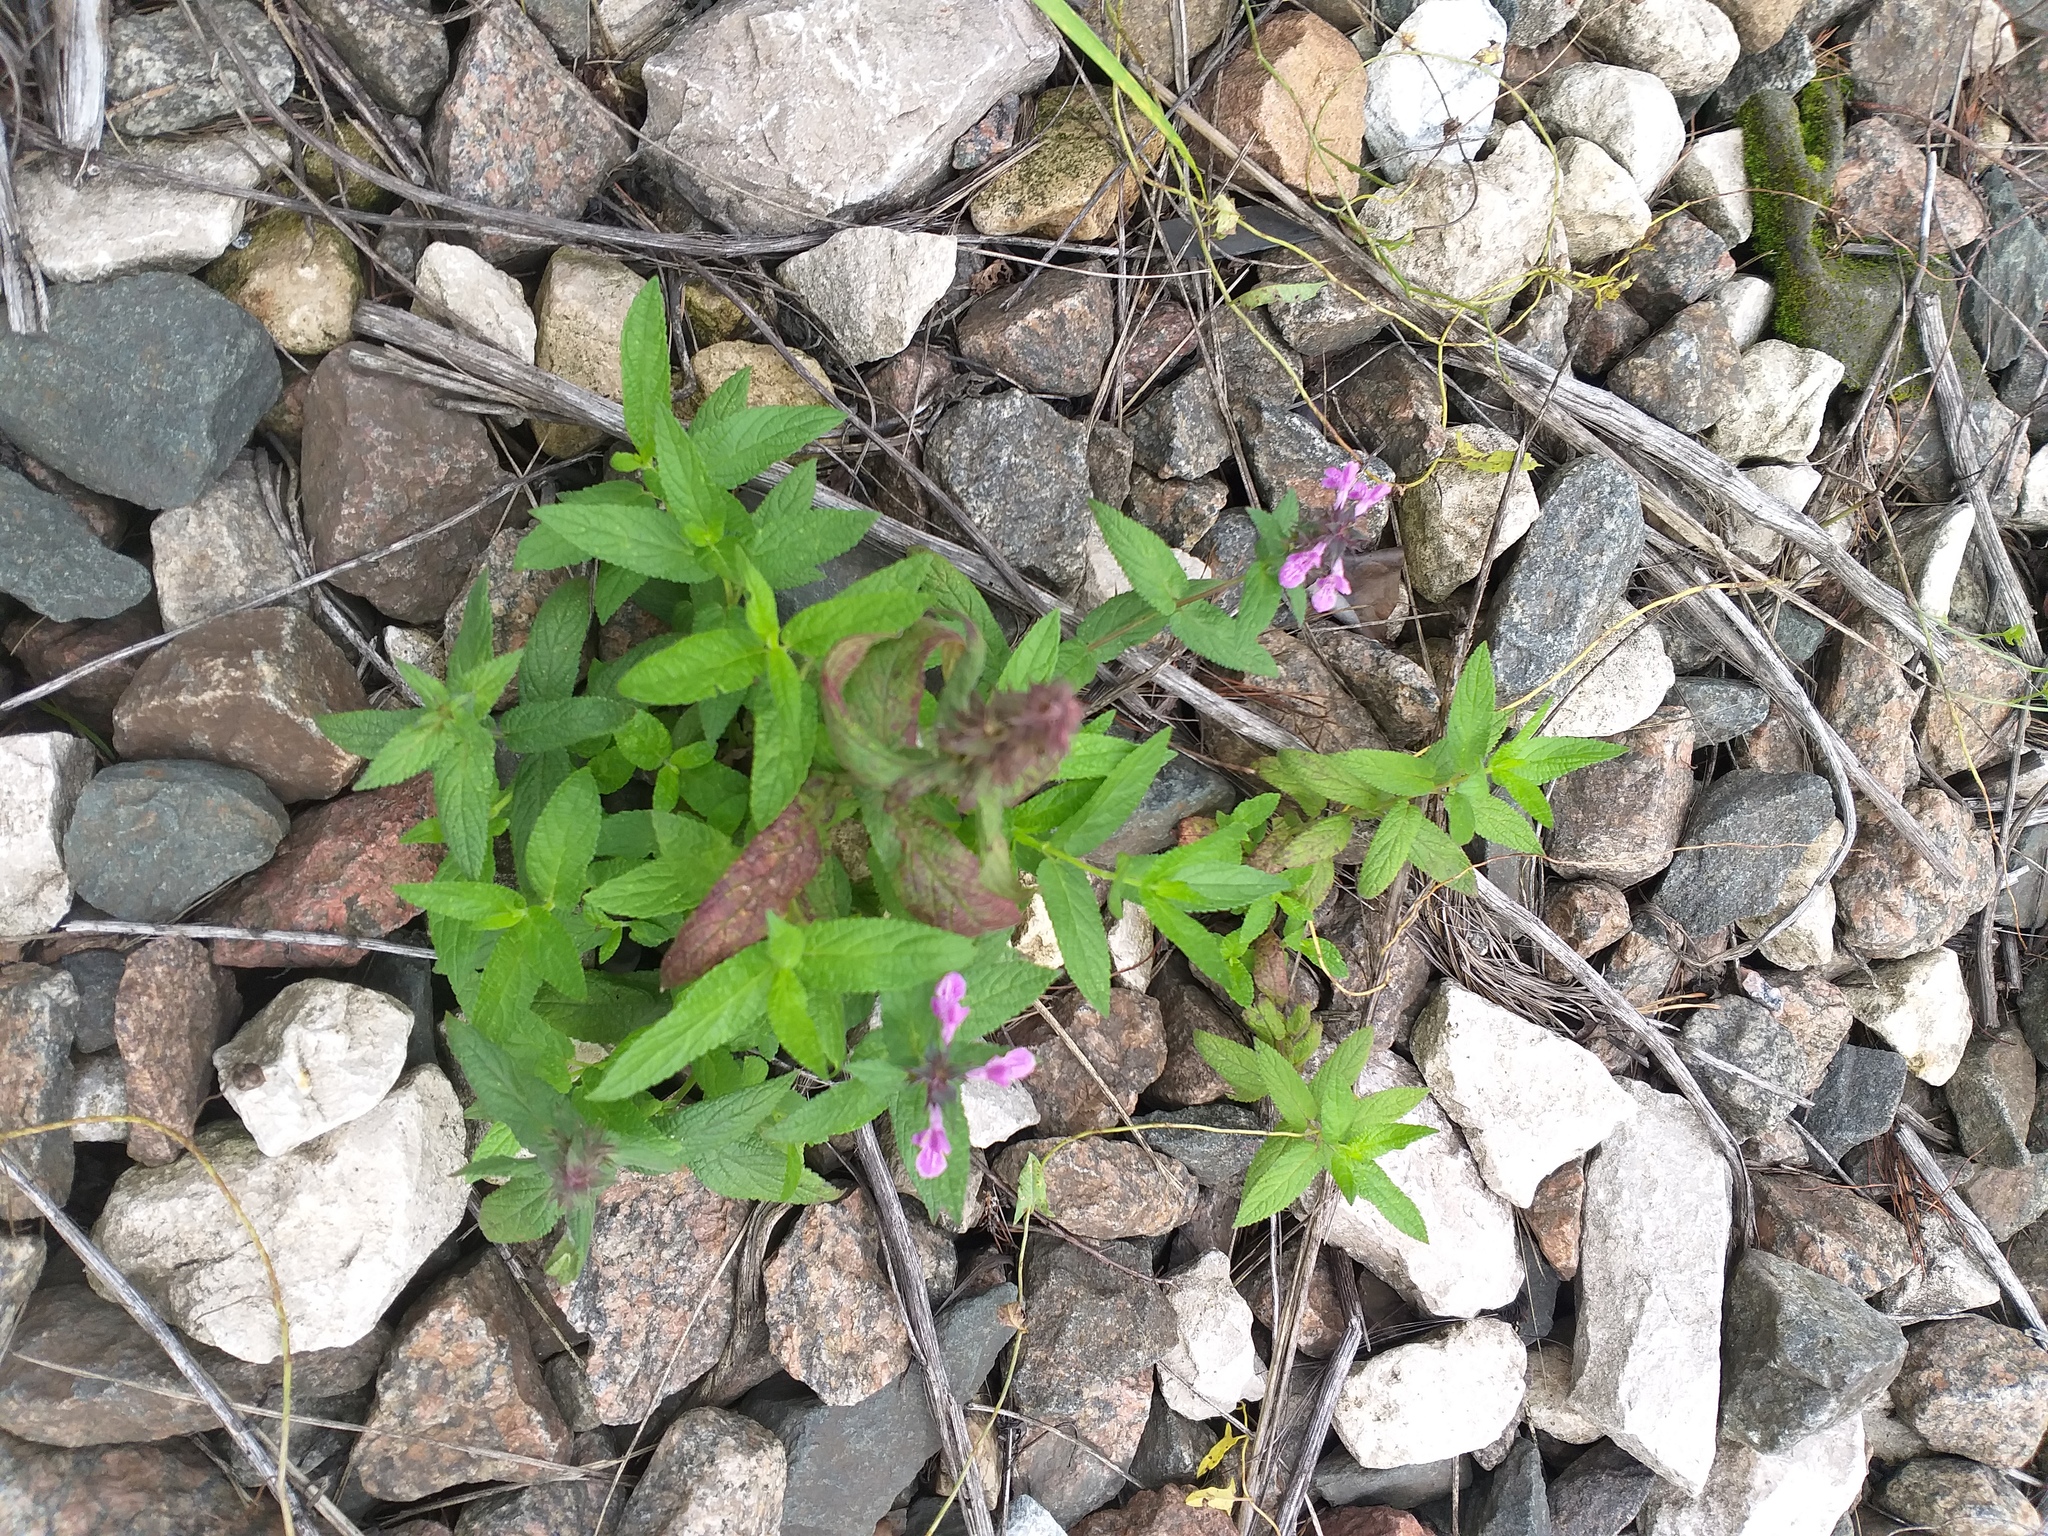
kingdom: Plantae
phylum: Tracheophyta
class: Magnoliopsida
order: Lamiales
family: Lamiaceae
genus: Stachys
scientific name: Stachys palustris
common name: Marsh woundwort
